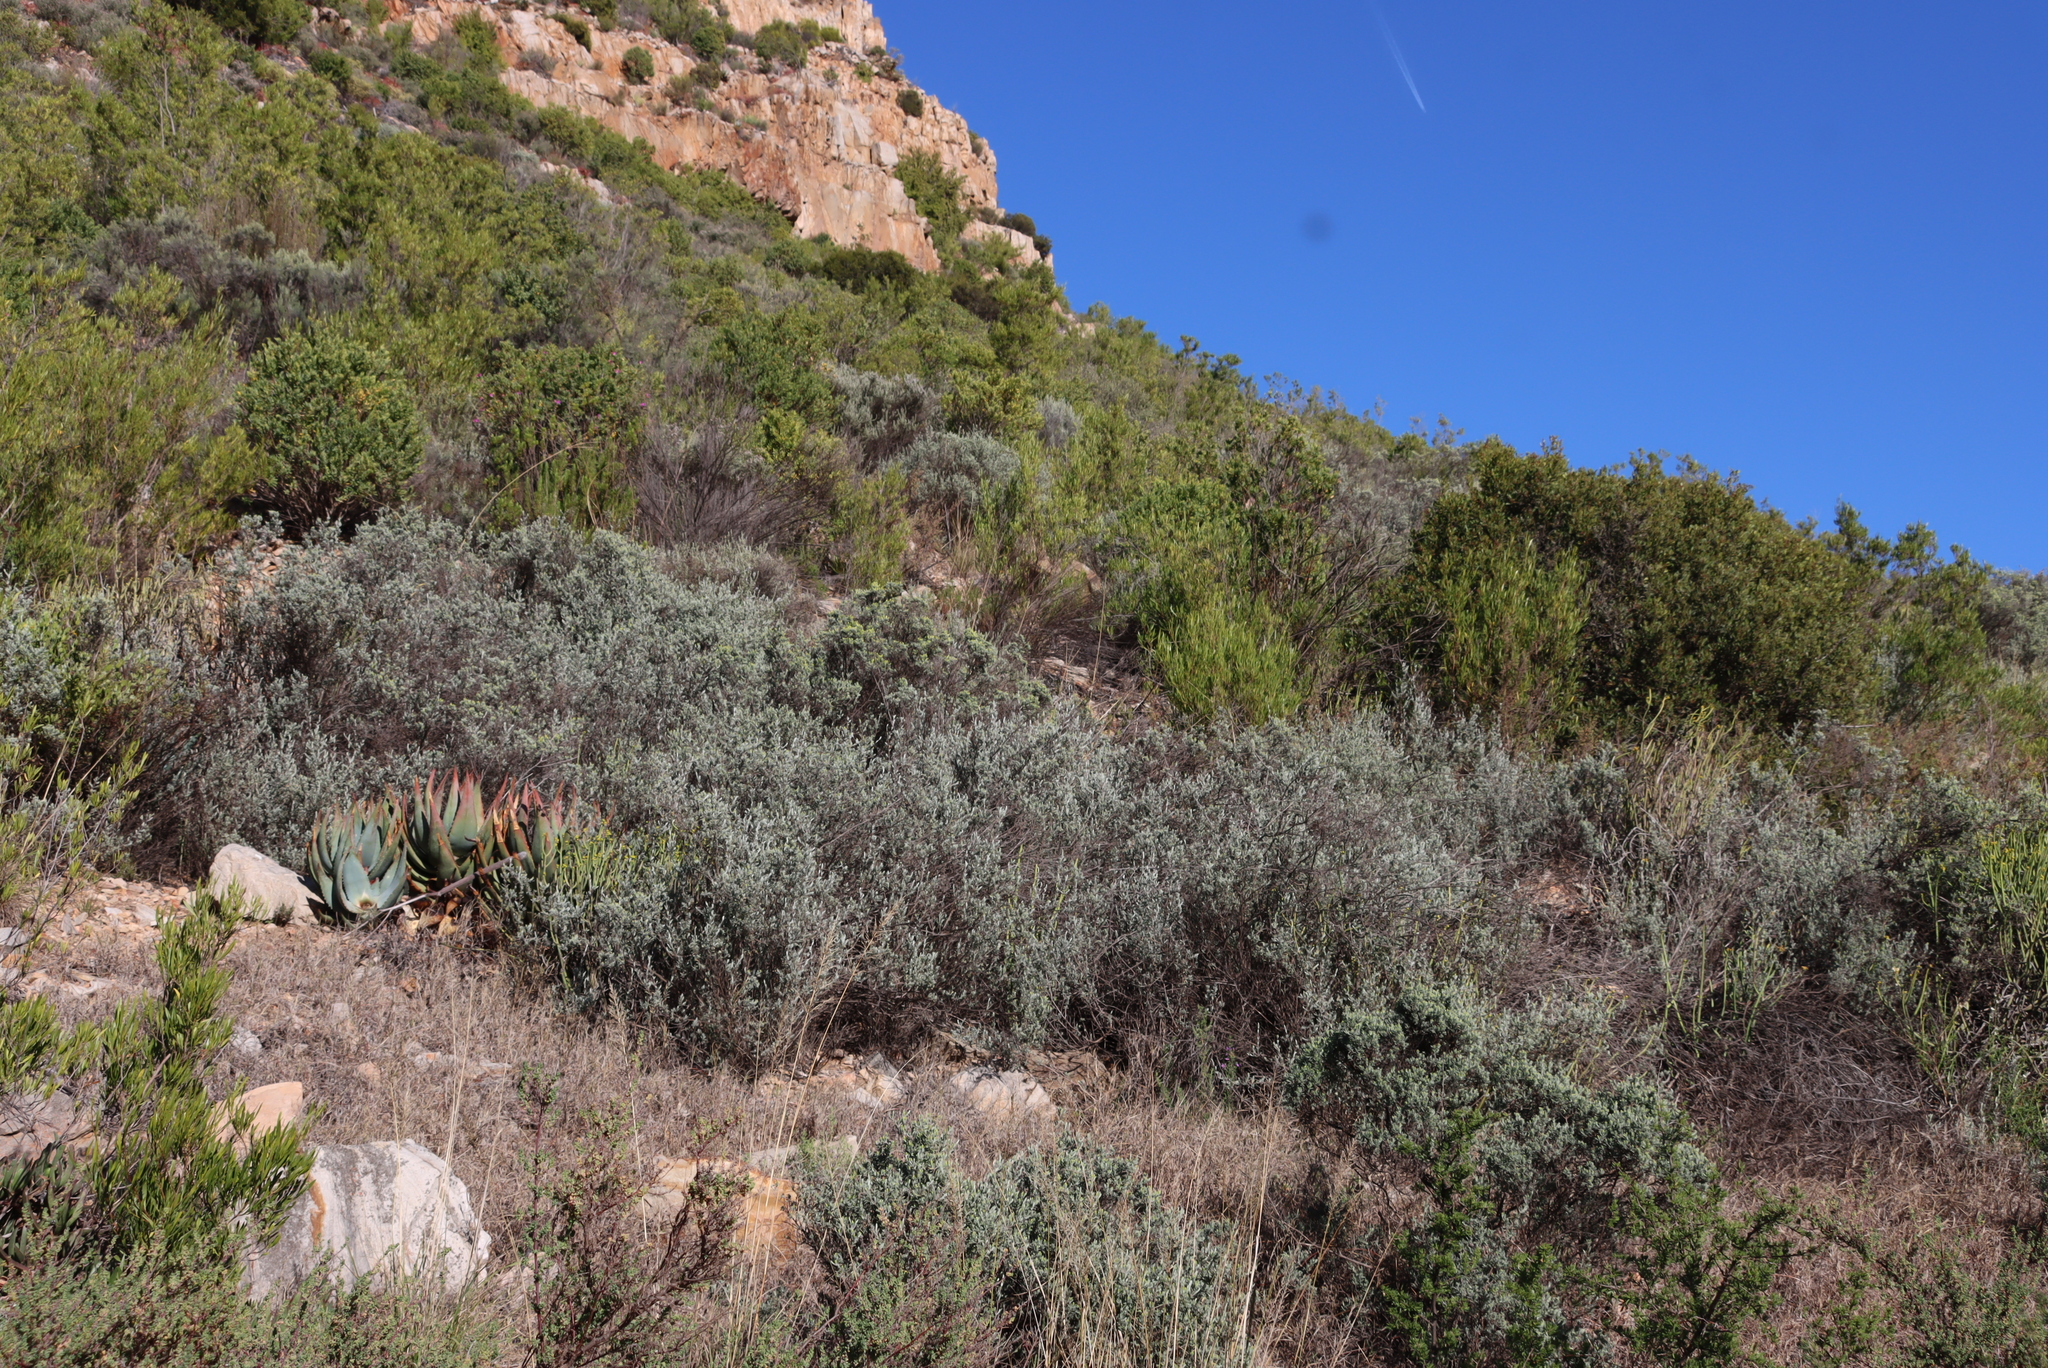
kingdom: Plantae
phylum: Tracheophyta
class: Magnoliopsida
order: Asterales
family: Asteraceae
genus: Pteronia
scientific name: Pteronia incana
